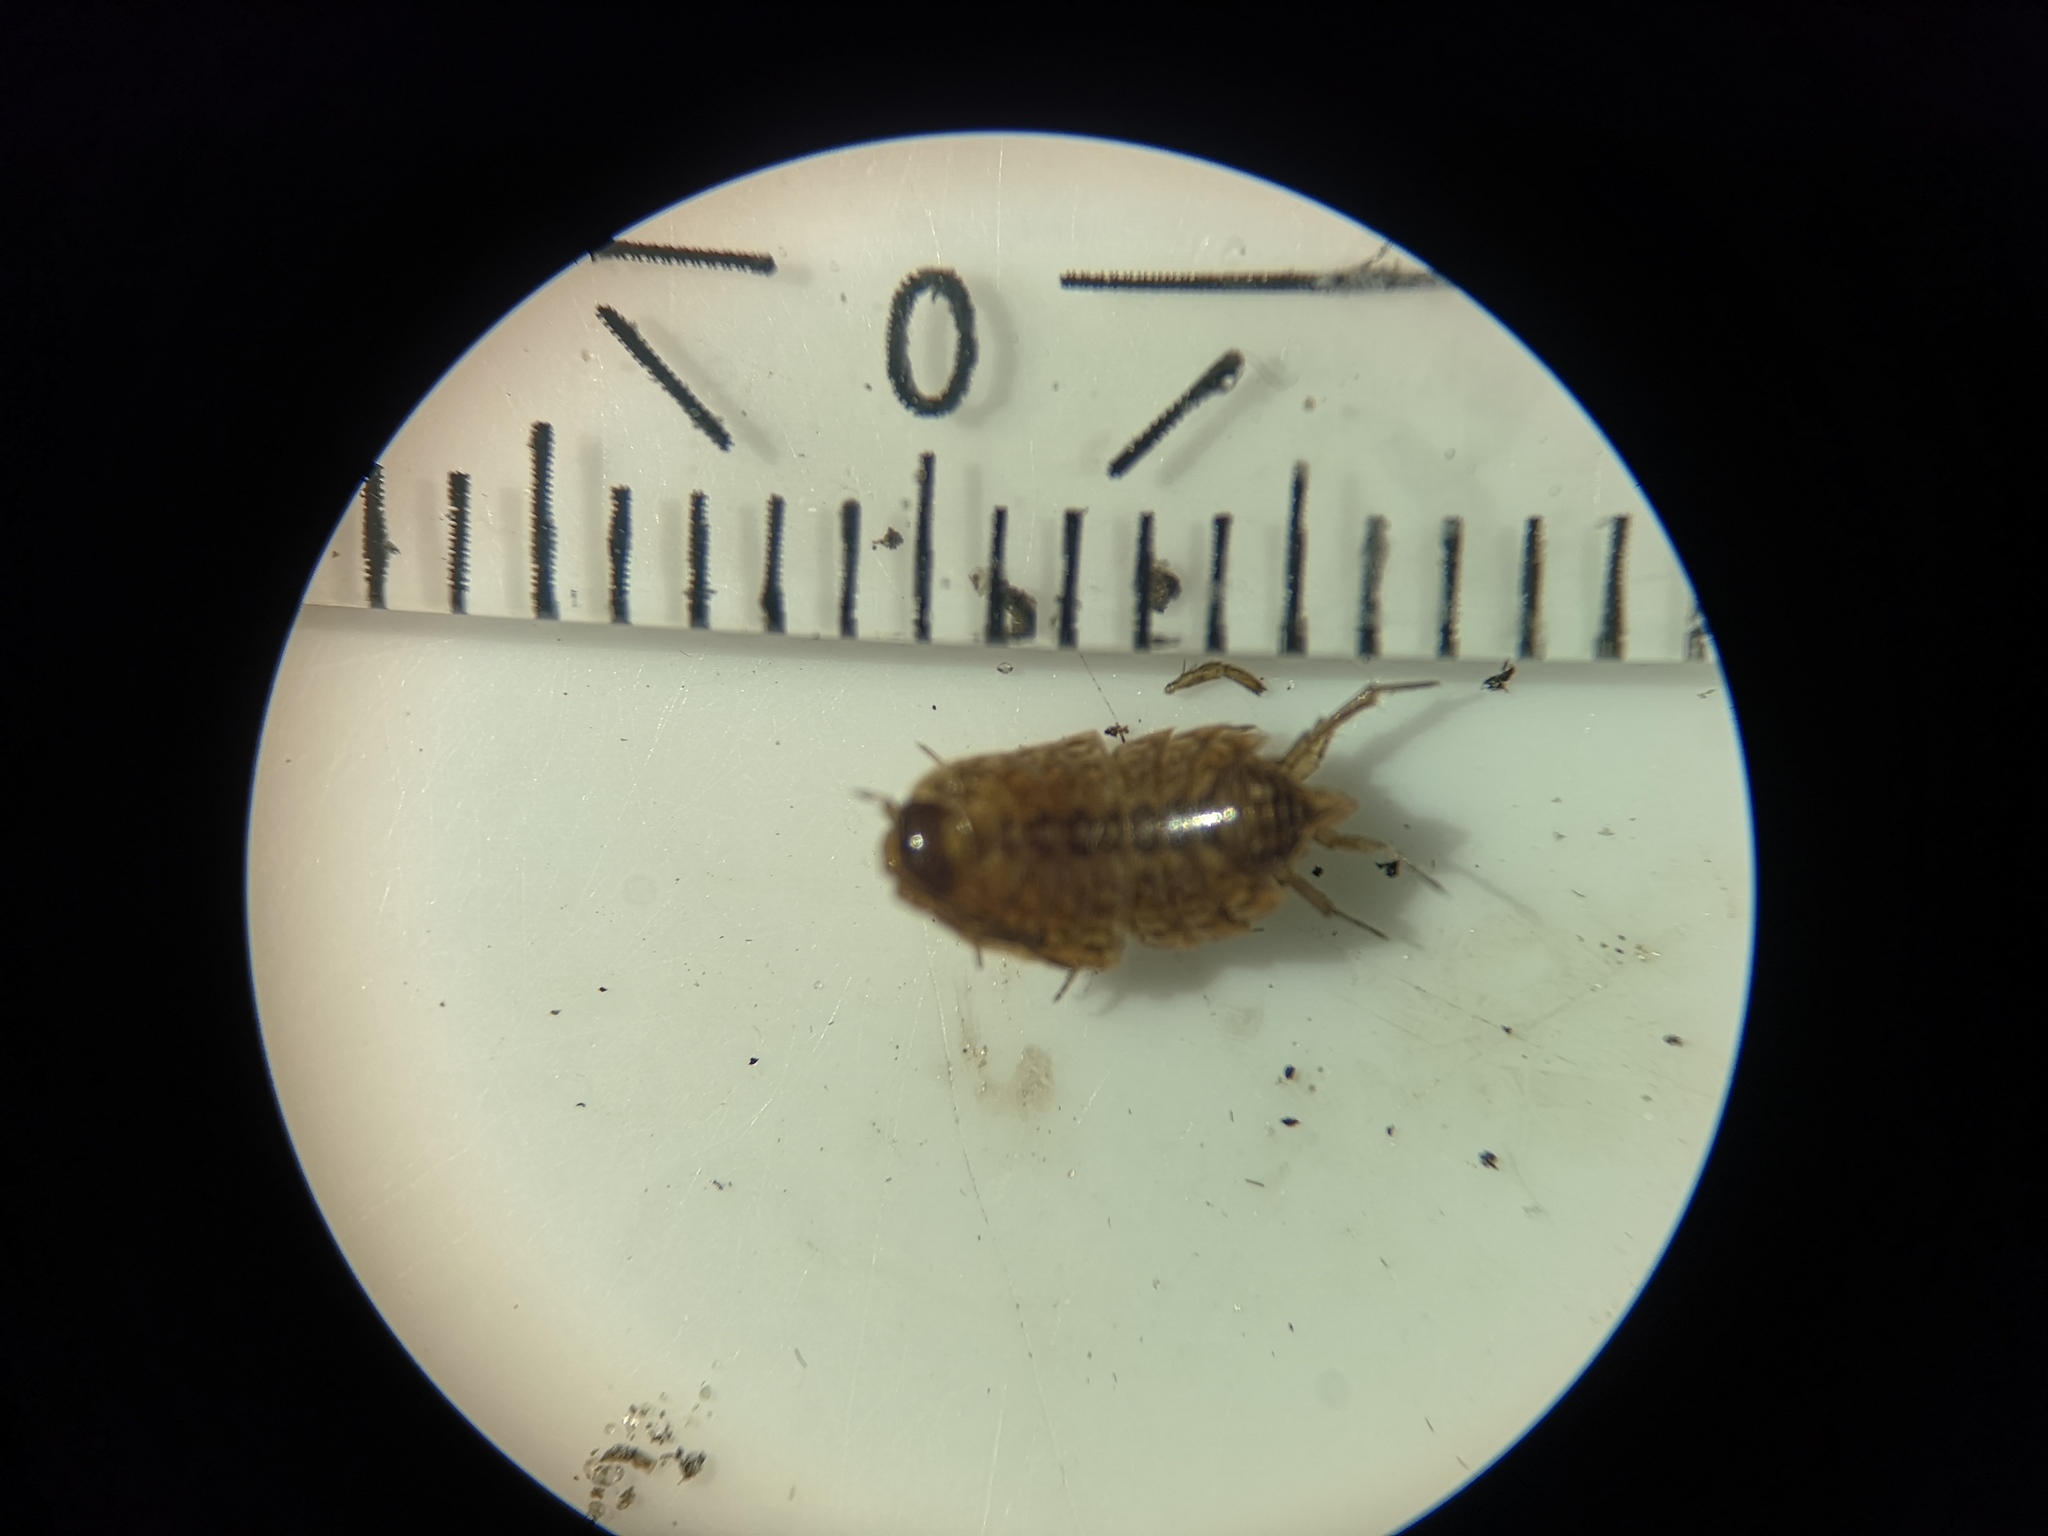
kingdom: Animalia
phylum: Arthropoda
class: Malacostraca
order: Isopoda
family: Philosciidae
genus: Philoscia
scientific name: Philoscia muscorum
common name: Common striped woodlouse
